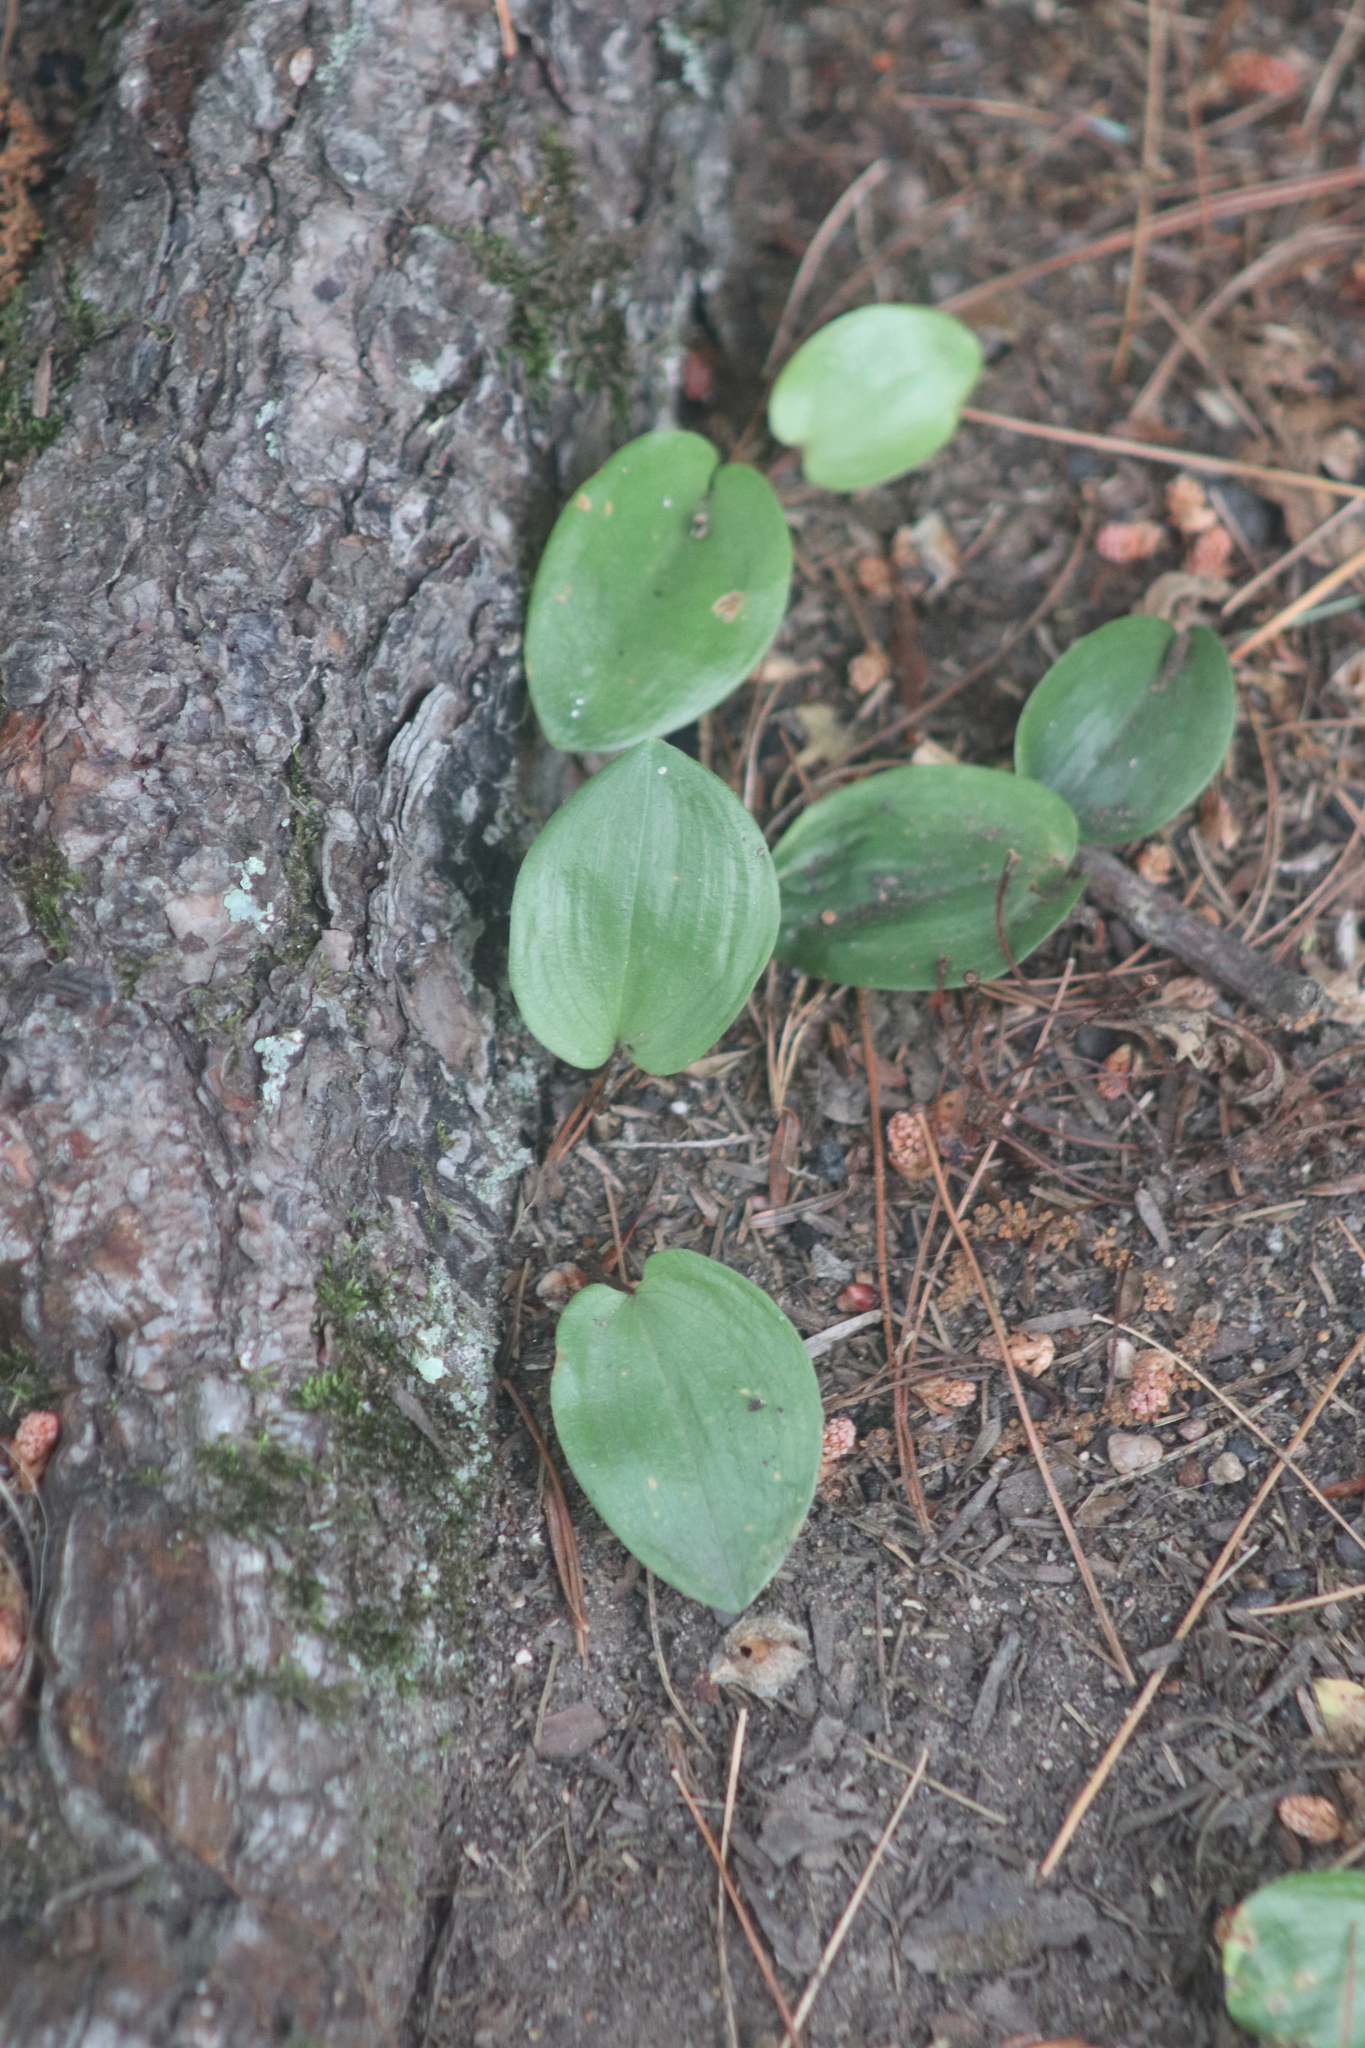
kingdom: Plantae
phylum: Tracheophyta
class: Liliopsida
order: Asparagales
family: Asparagaceae
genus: Maianthemum
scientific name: Maianthemum canadense
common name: False lily-of-the-valley
